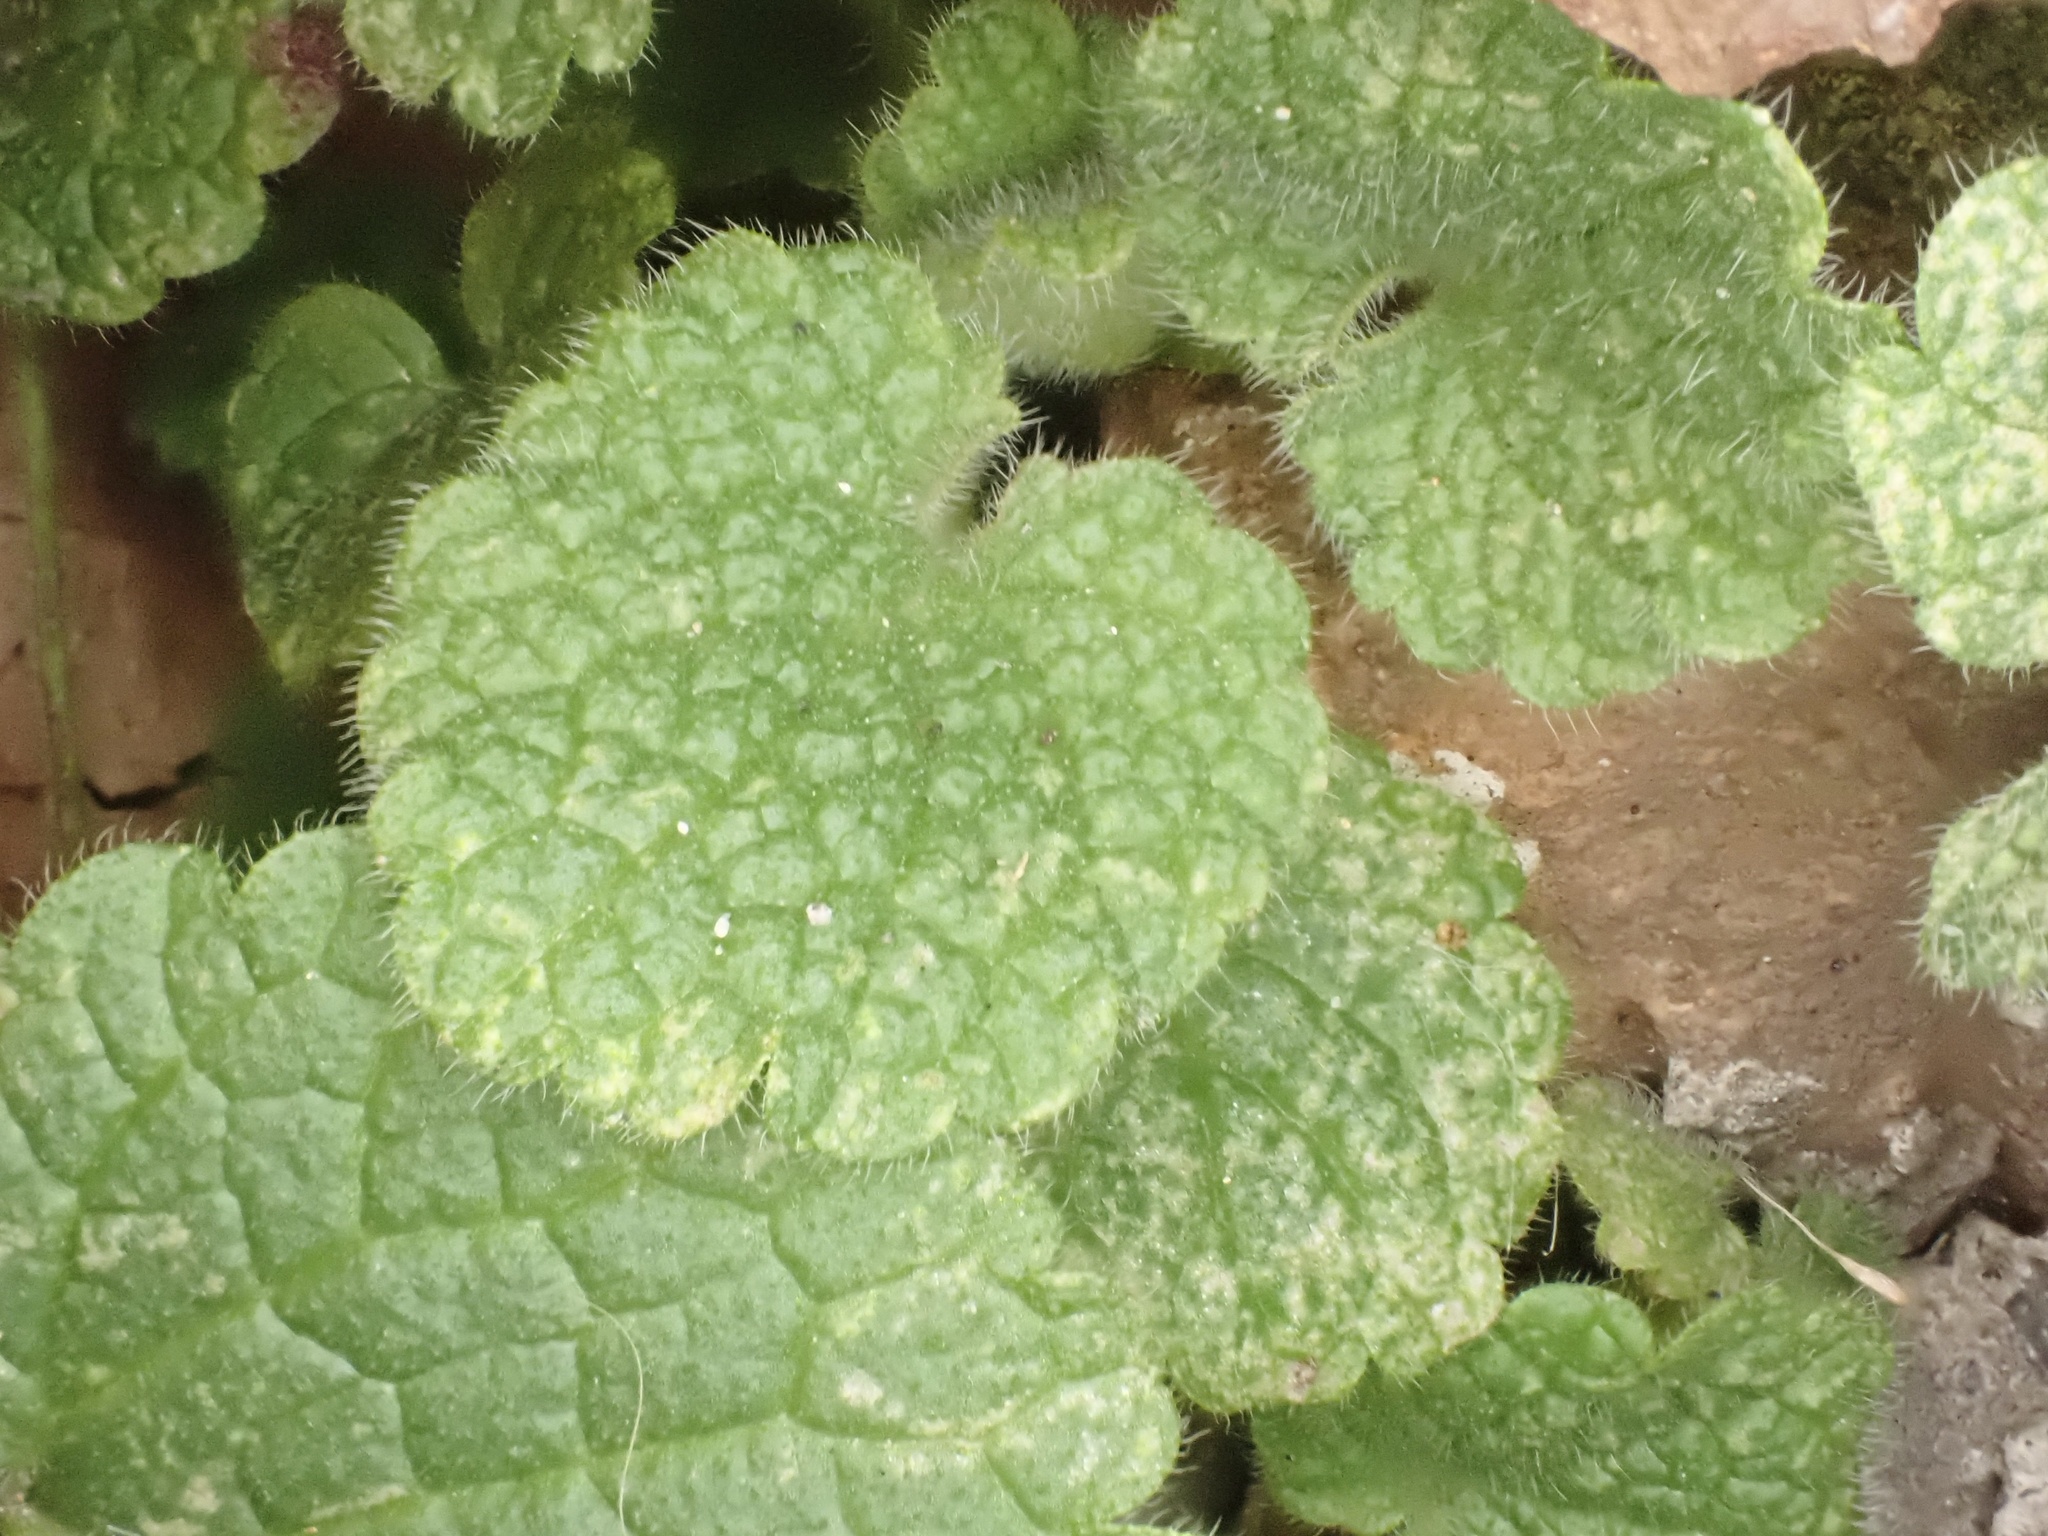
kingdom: Plantae
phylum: Tracheophyta
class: Magnoliopsida
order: Lamiales
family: Lamiaceae
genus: Lamium
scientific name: Lamium purpureum
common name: Red dead-nettle
